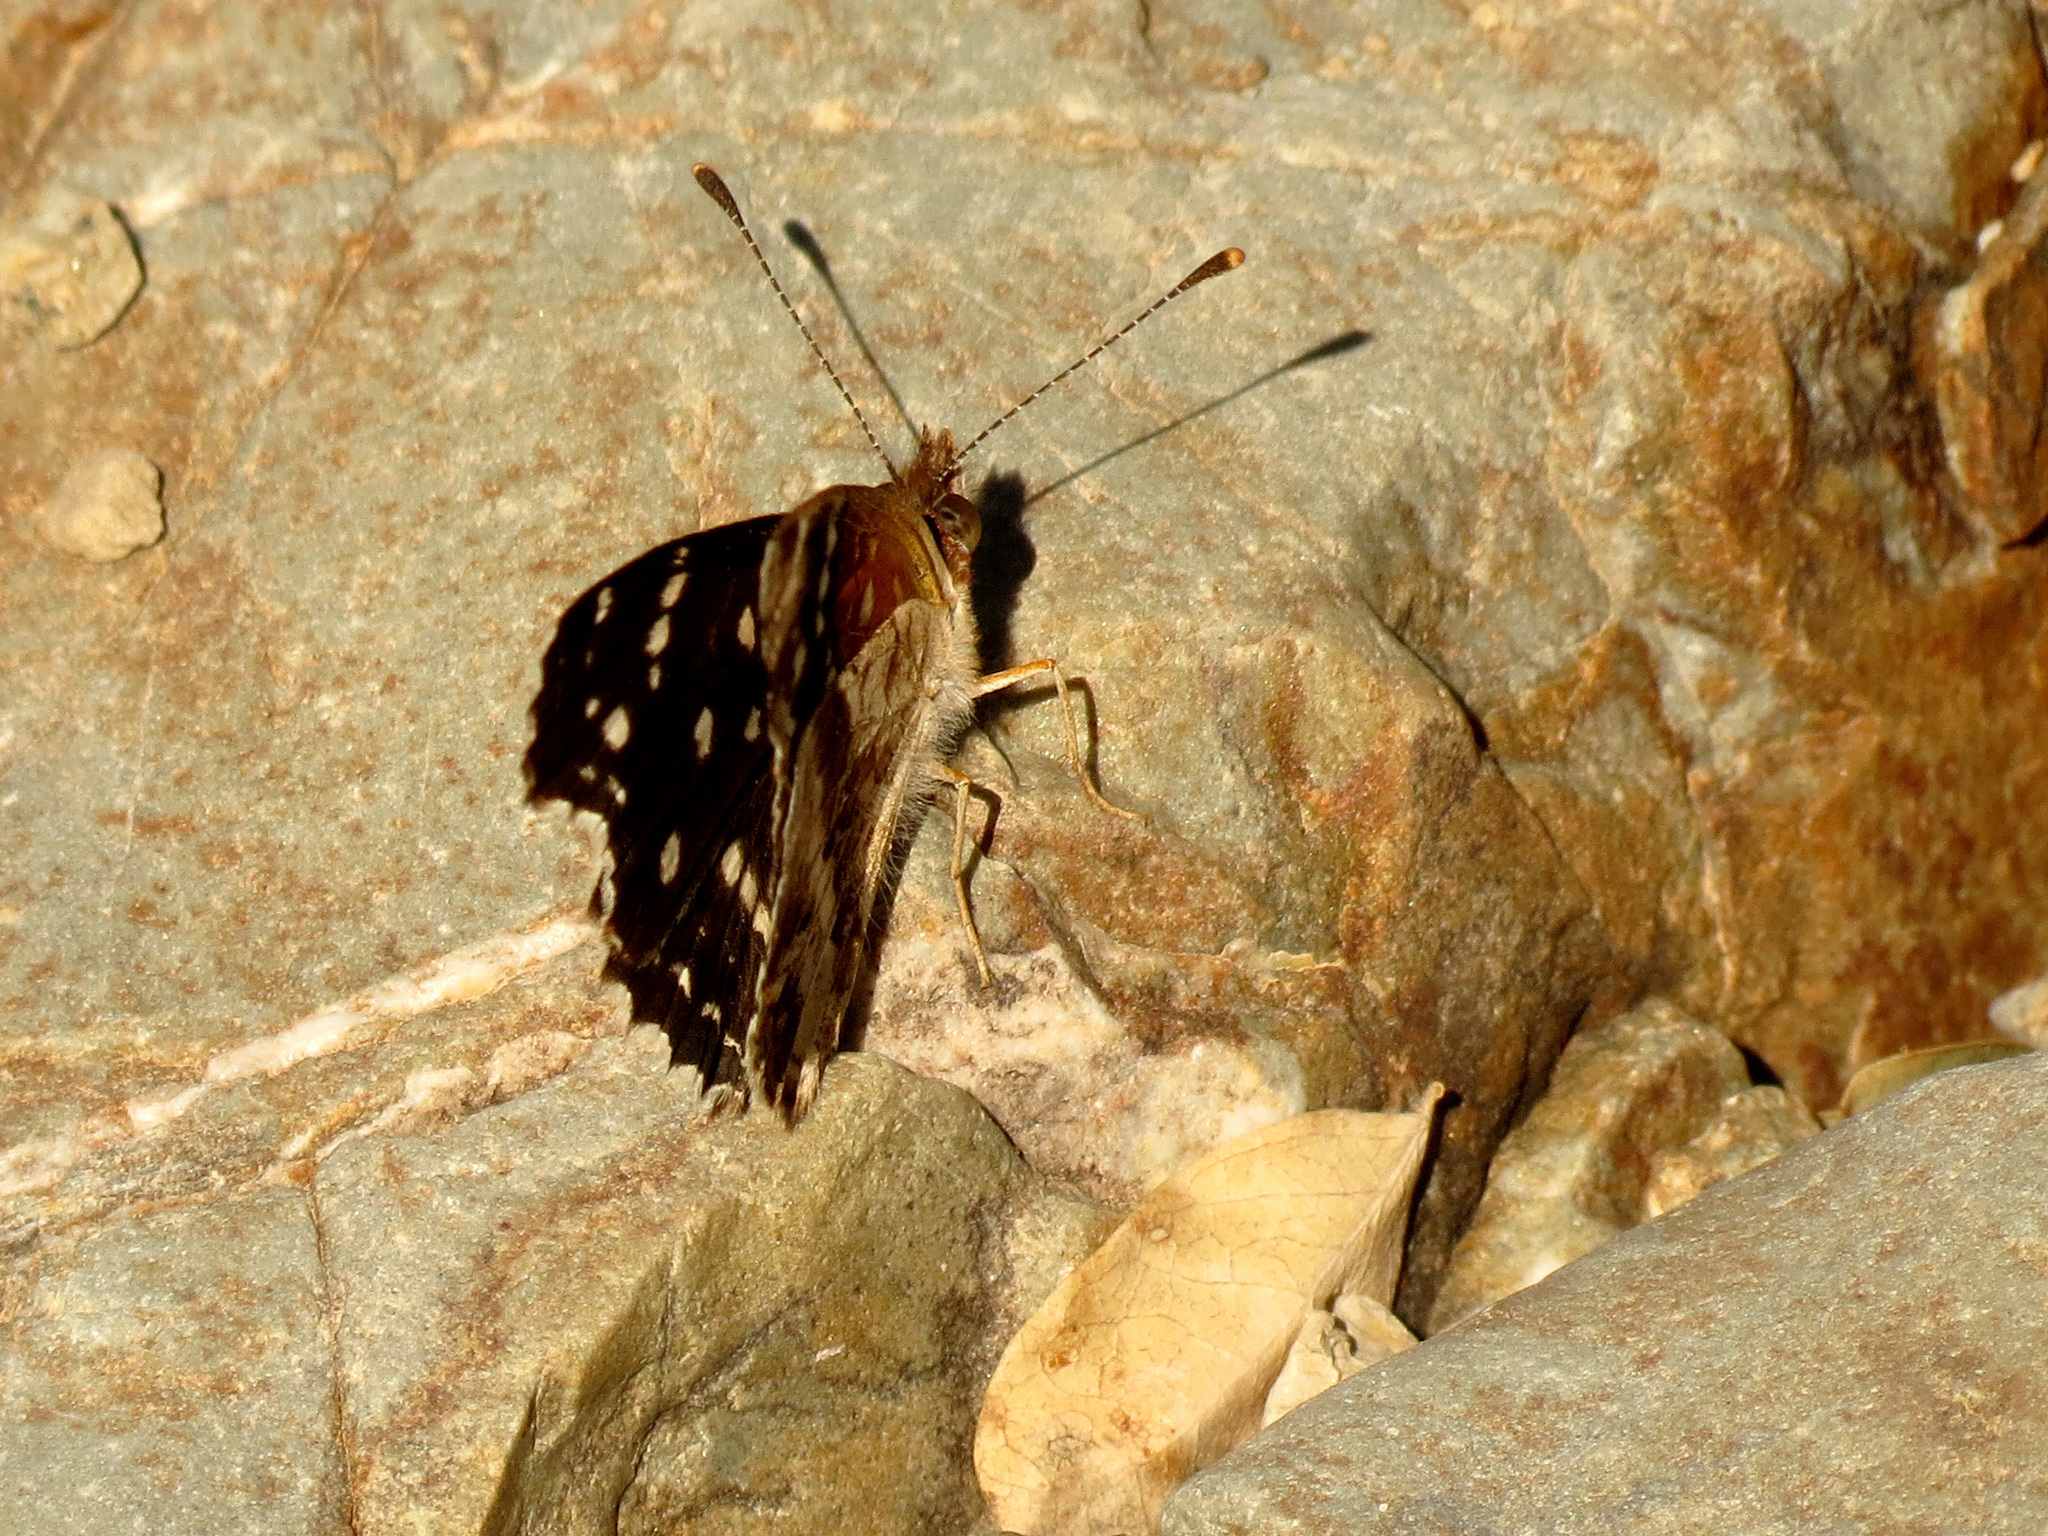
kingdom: Animalia
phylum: Arthropoda
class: Insecta
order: Lepidoptera
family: Nymphalidae
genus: Anthanassa
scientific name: Anthanassa texana
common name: Texan crescent
